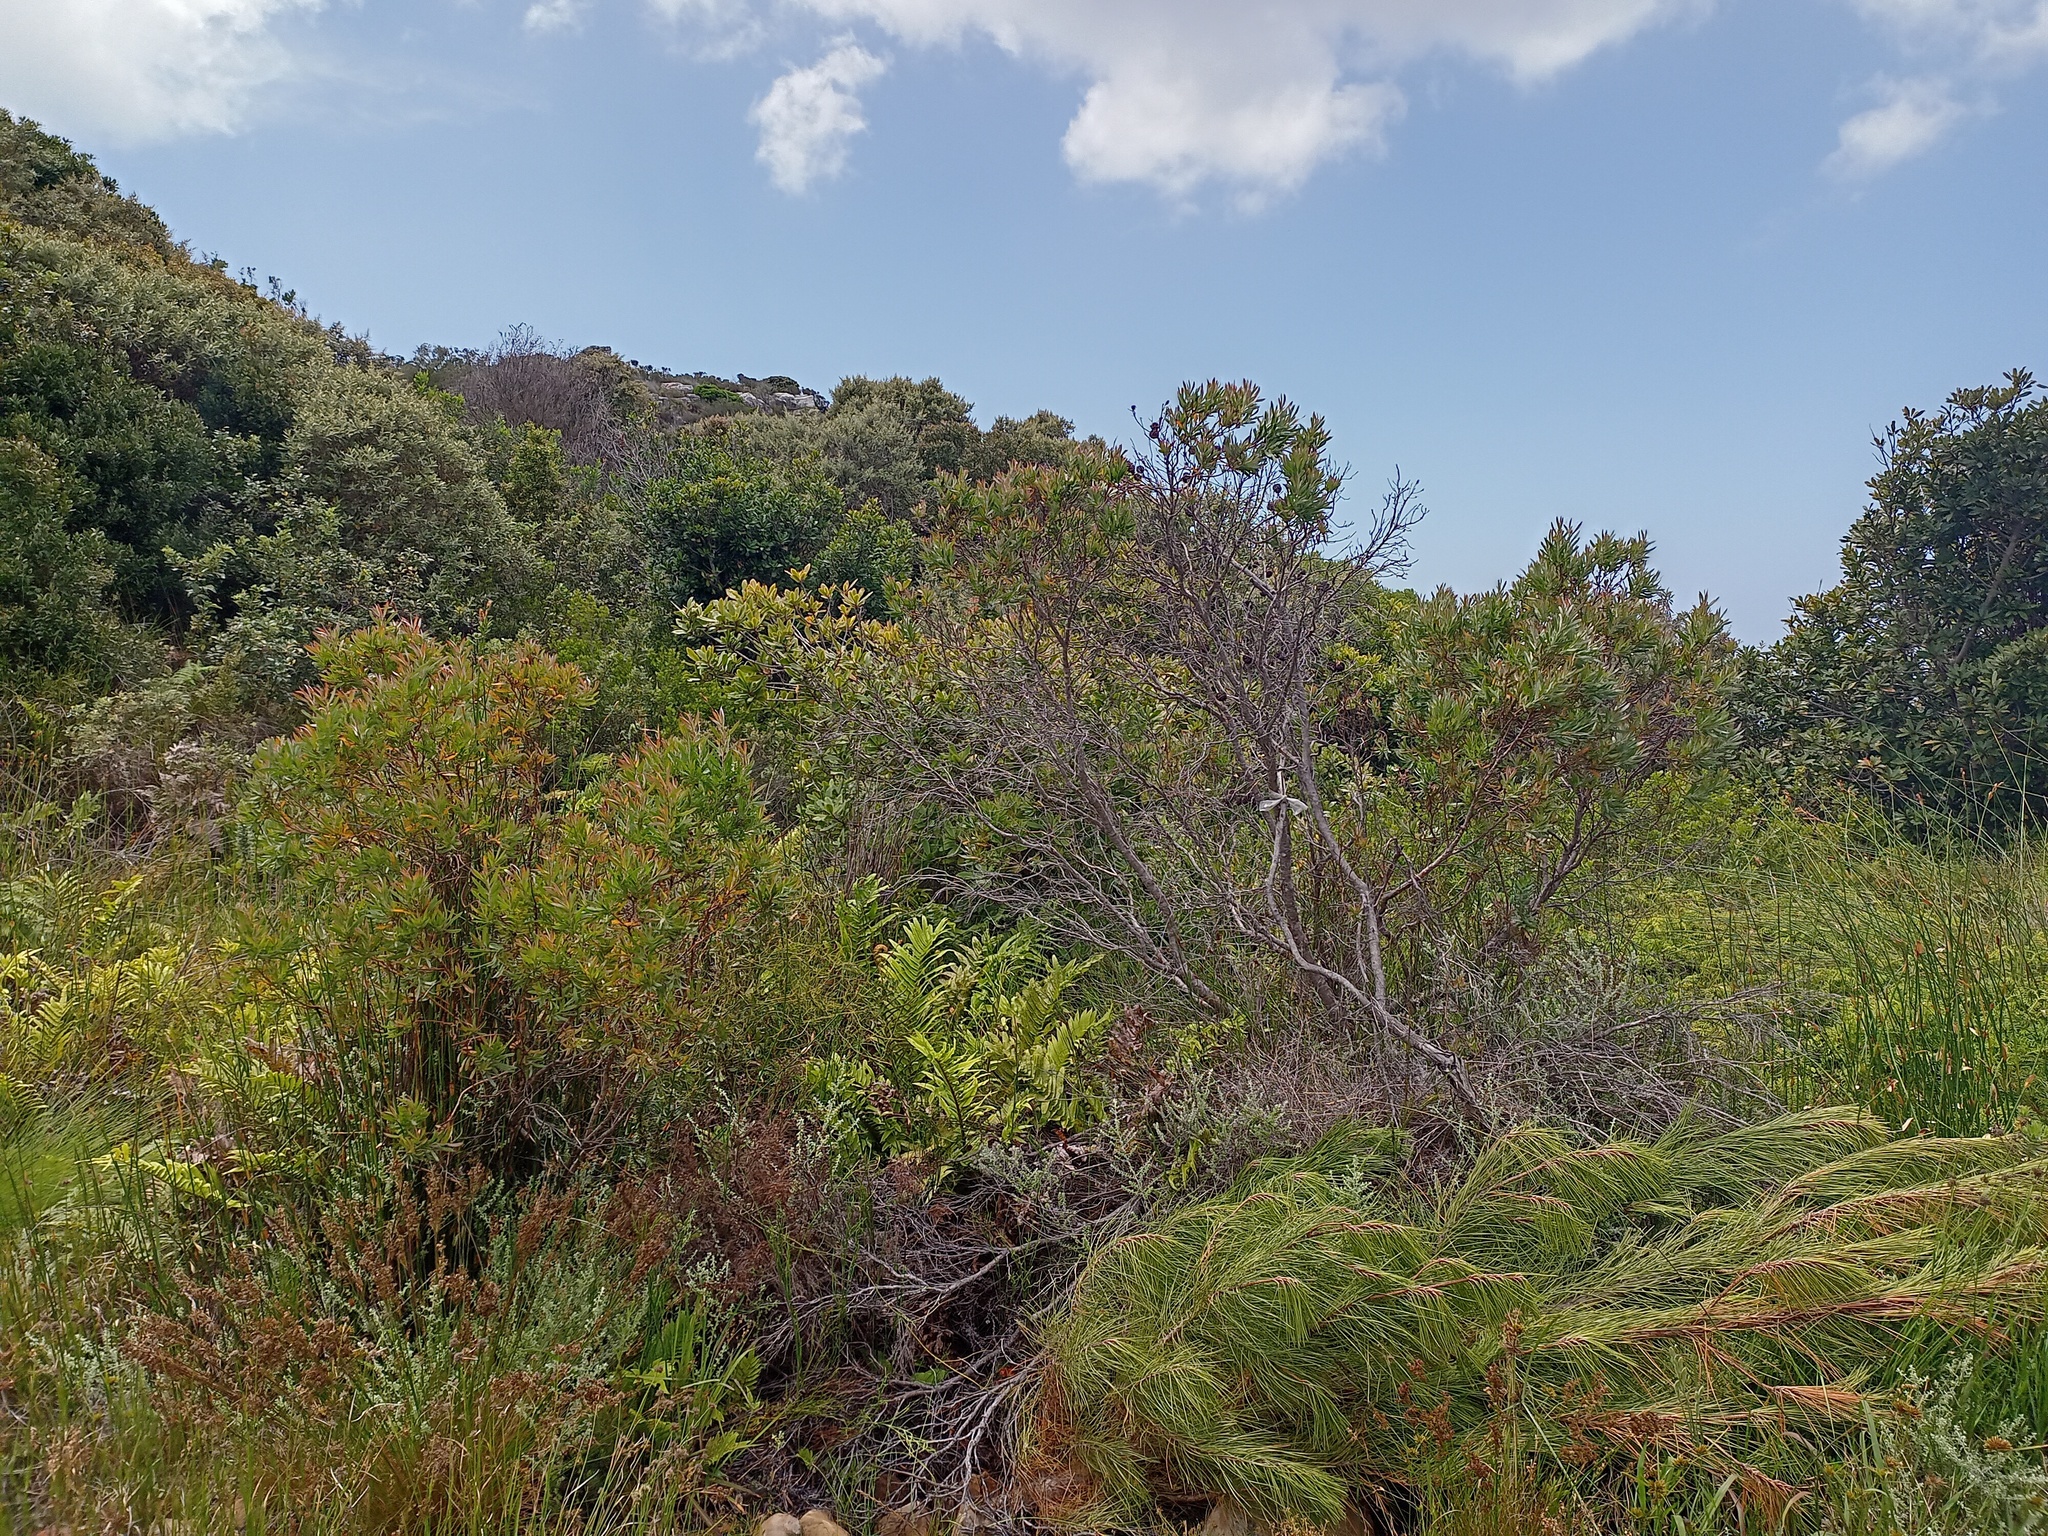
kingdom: Plantae
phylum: Tracheophyta
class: Magnoliopsida
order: Proteales
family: Proteaceae
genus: Leucadendron
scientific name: Leucadendron macowanii
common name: Acacia-leaf conebush
